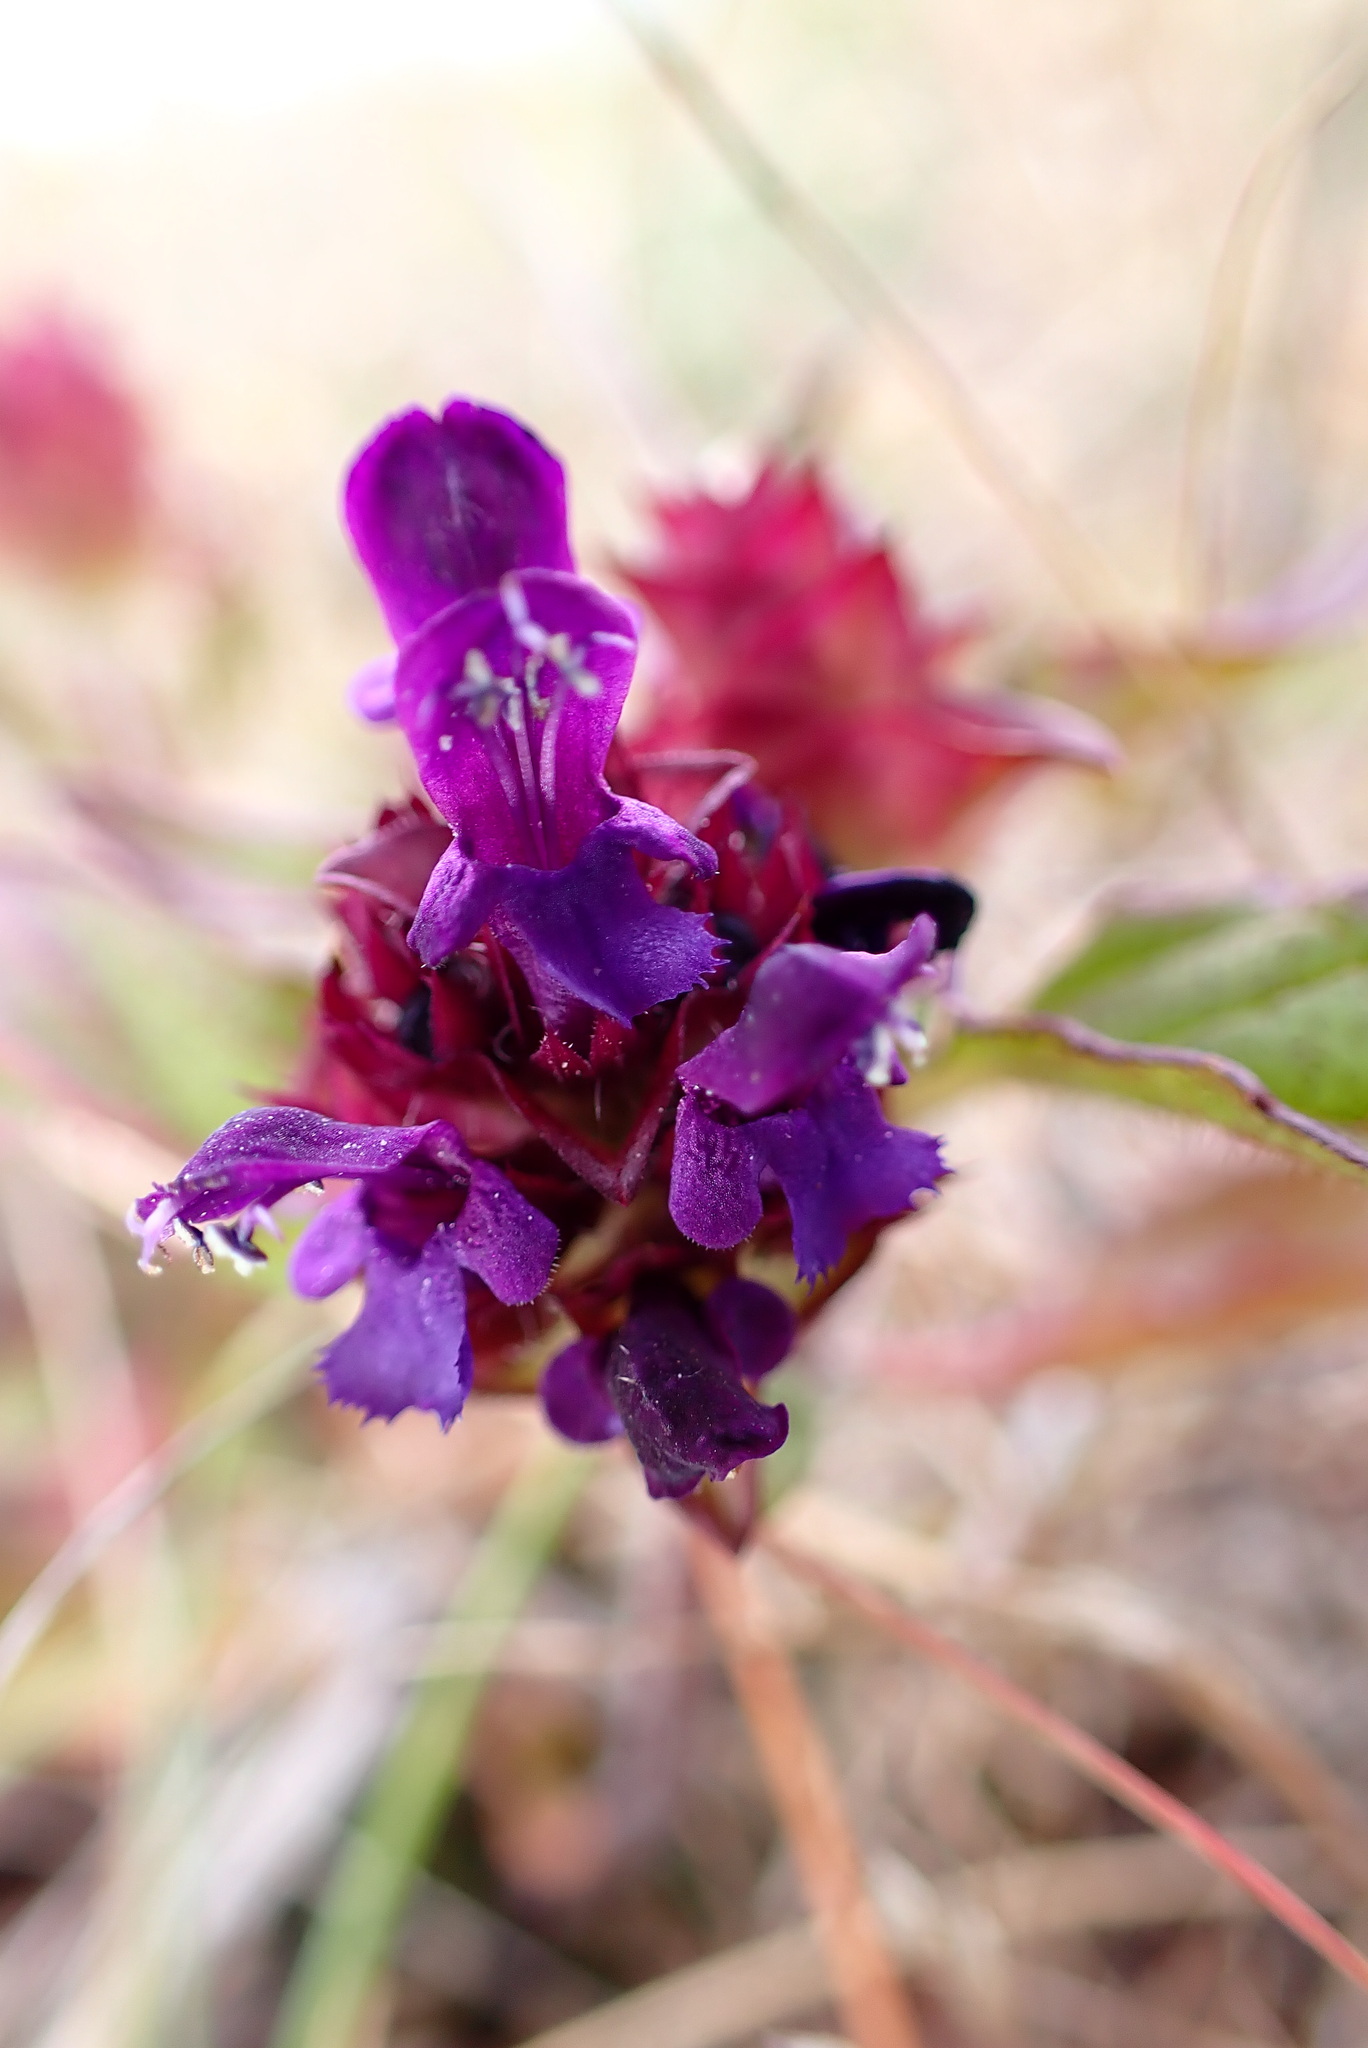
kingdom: Plantae
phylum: Tracheophyta
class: Magnoliopsida
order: Lamiales
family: Lamiaceae
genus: Prunella
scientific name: Prunella vulgaris
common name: Heal-all
